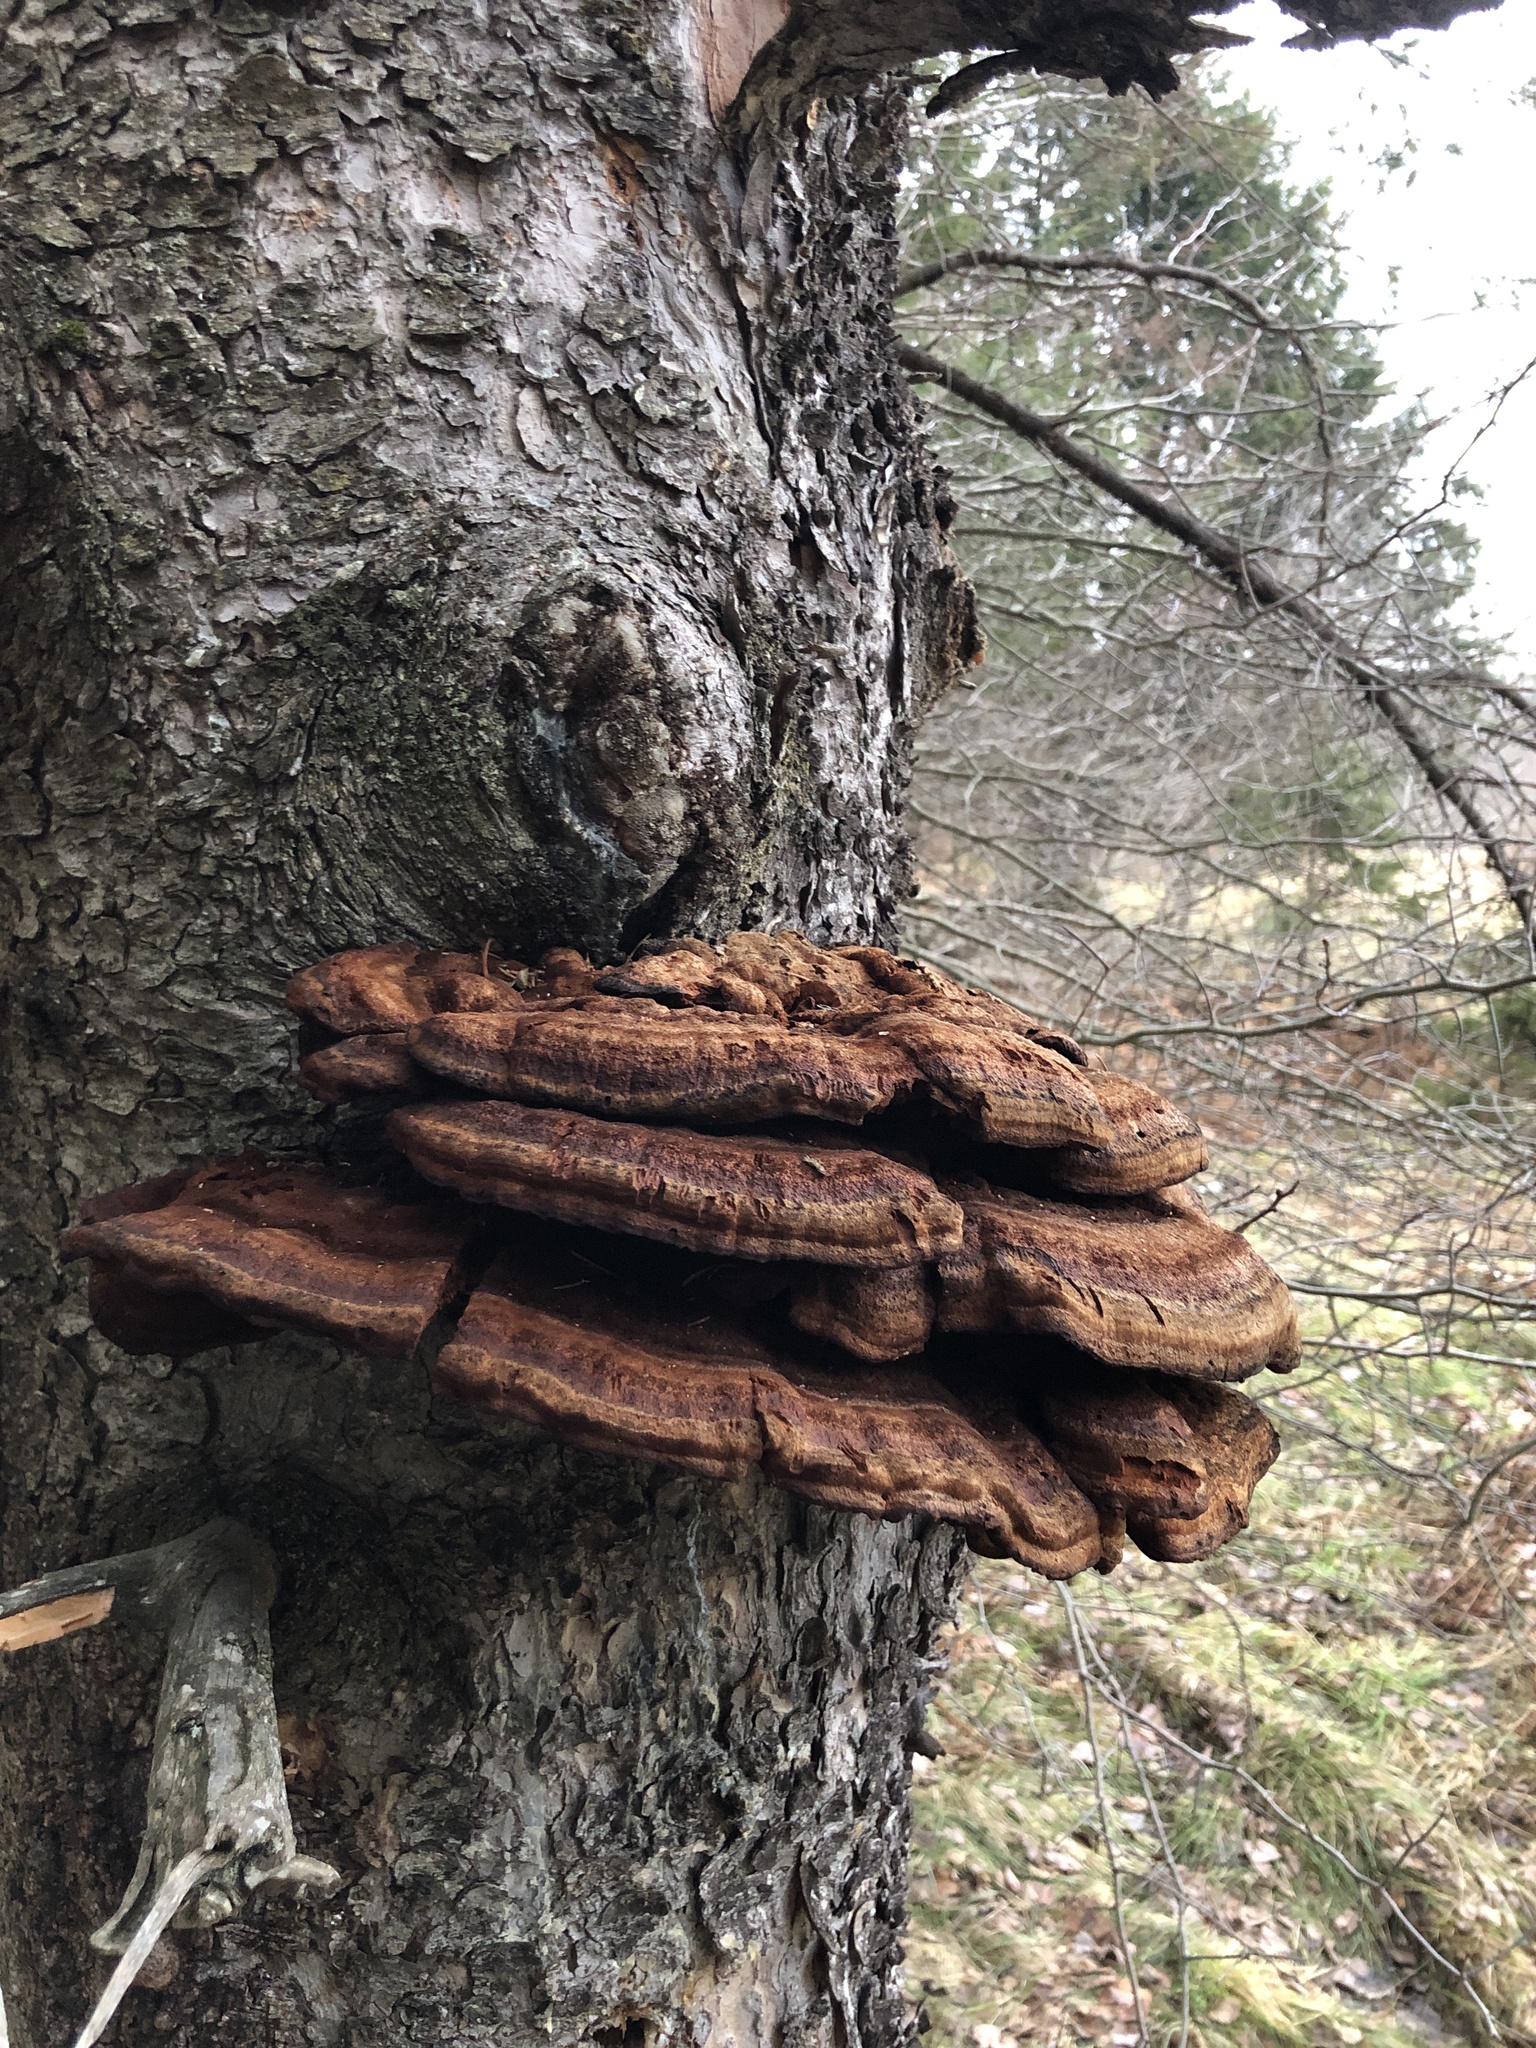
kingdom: Fungi
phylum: Basidiomycota
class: Agaricomycetes
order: Polyporales
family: Ischnodermataceae
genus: Ischnoderma
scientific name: Ischnoderma resinosum
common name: Resinous polypore
